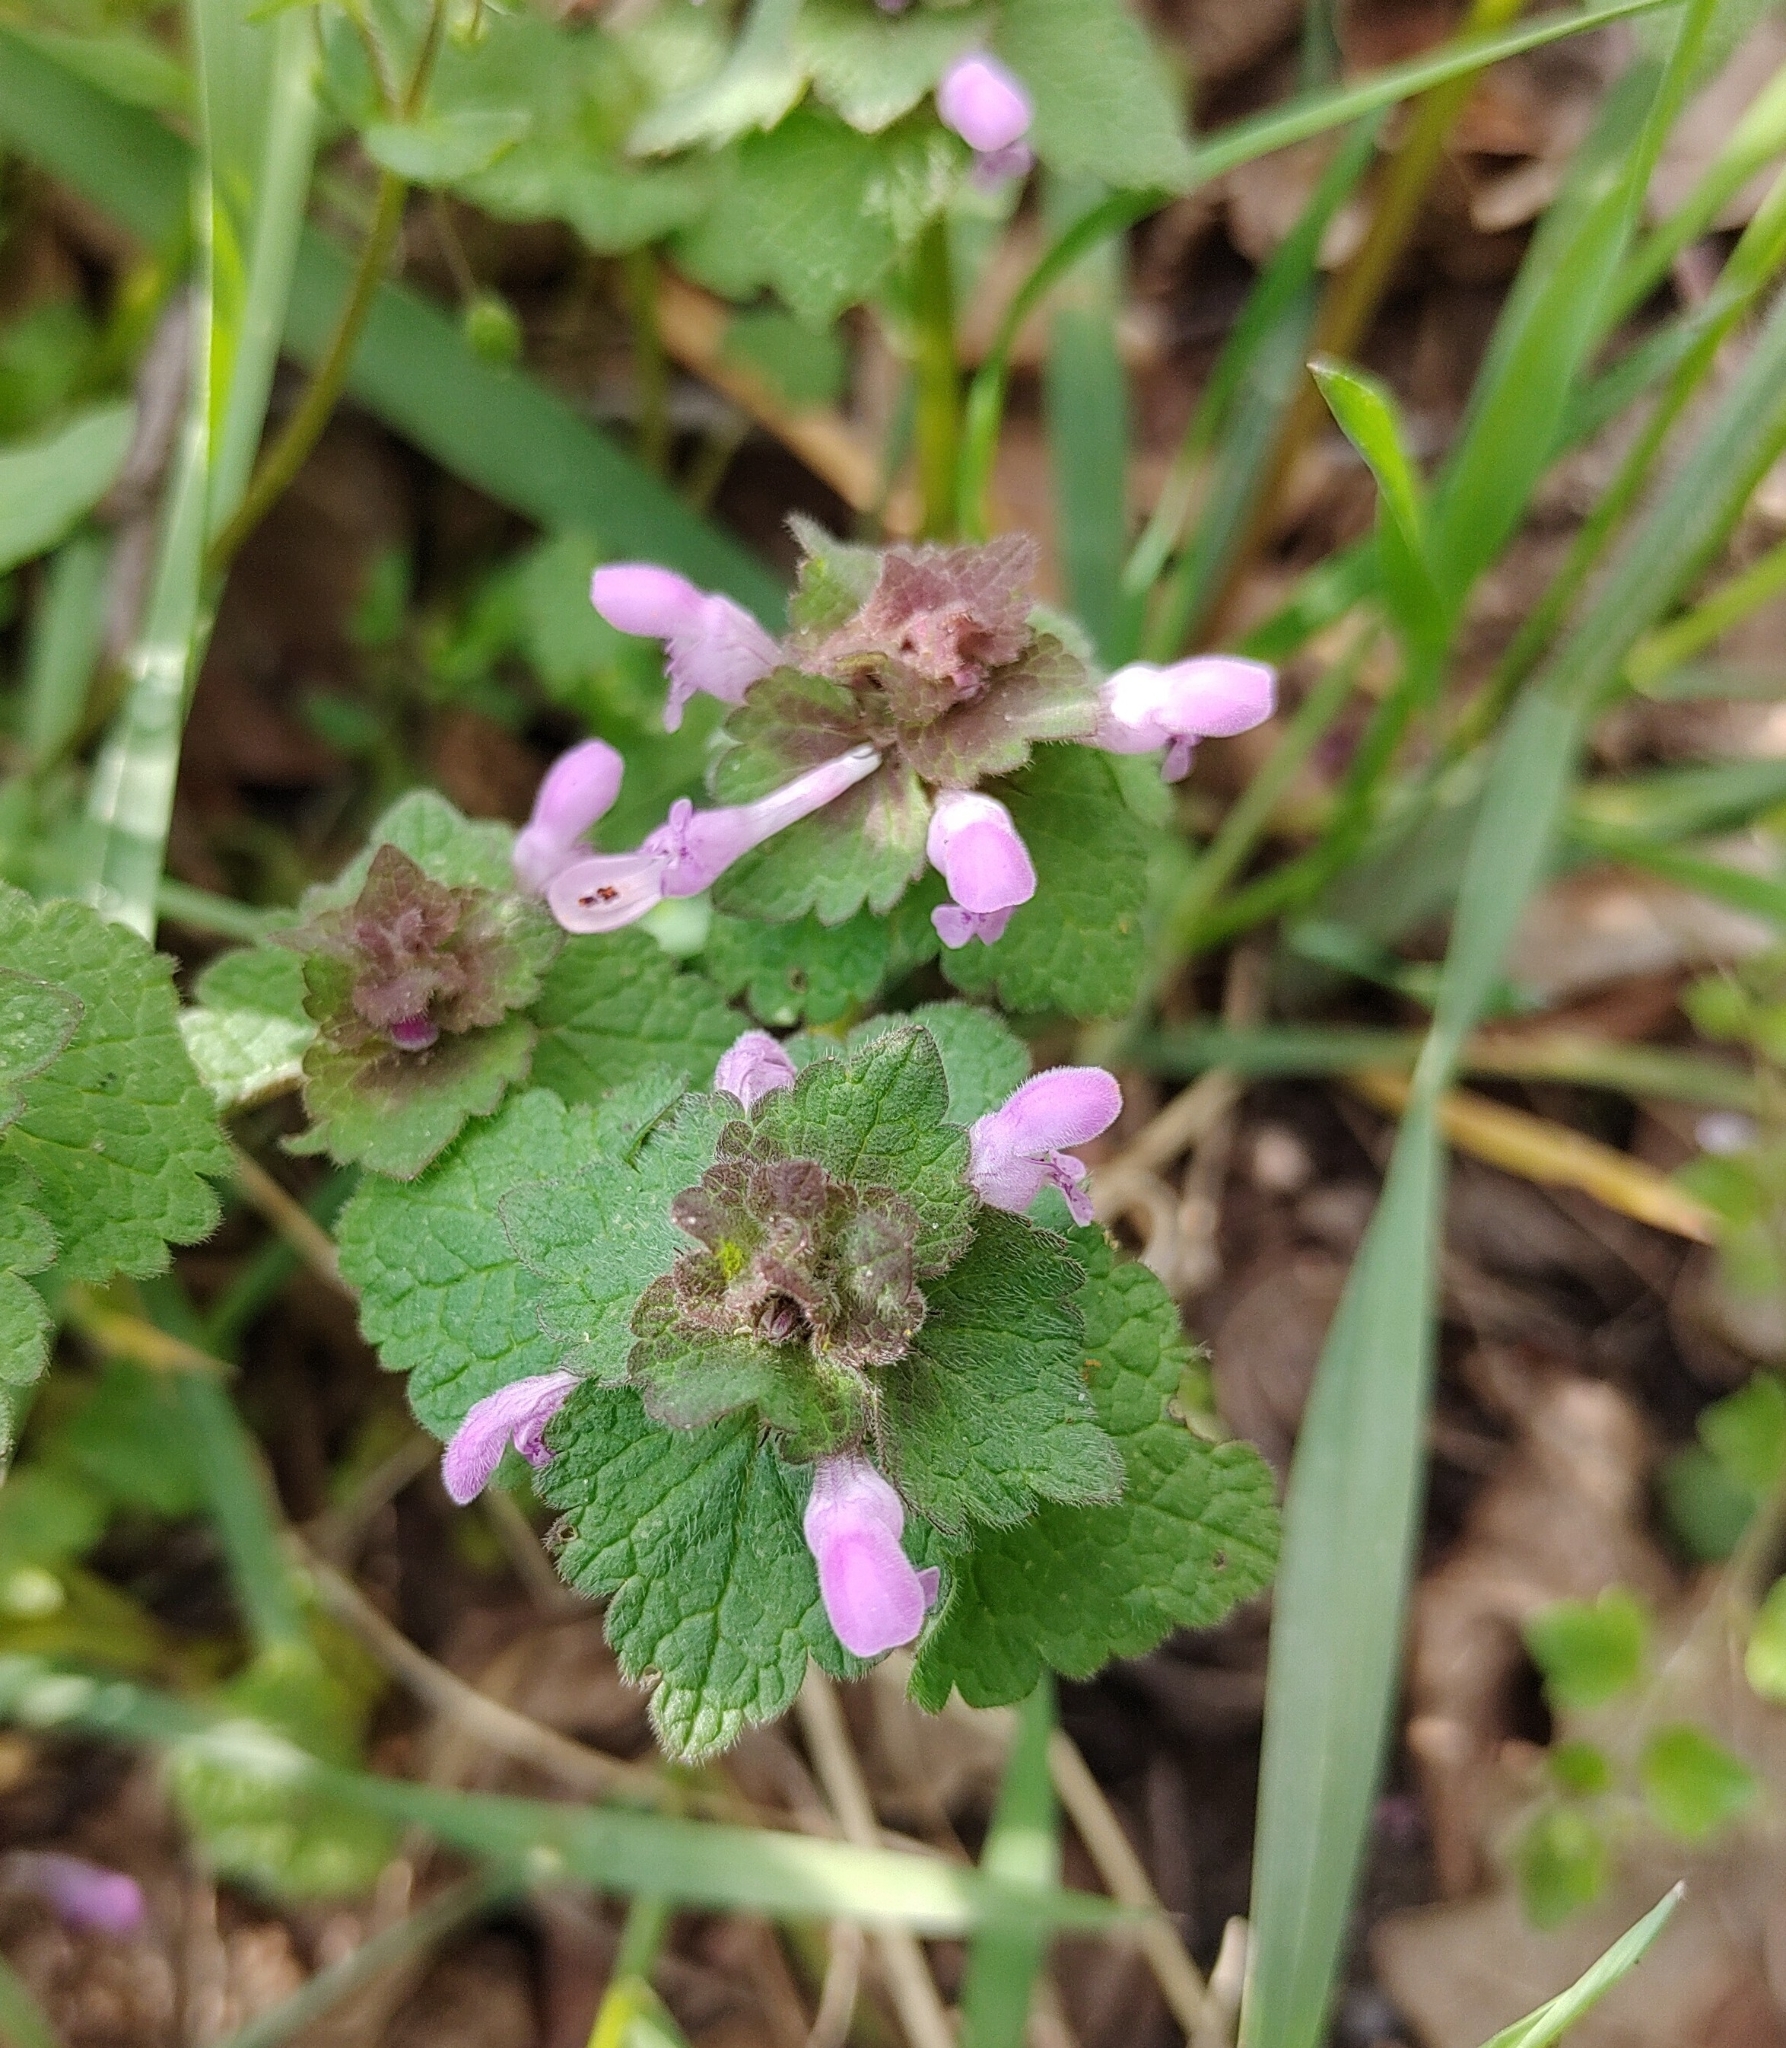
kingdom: Plantae
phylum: Tracheophyta
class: Magnoliopsida
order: Lamiales
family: Lamiaceae
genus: Lamium
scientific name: Lamium purpureum
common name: Red dead-nettle
